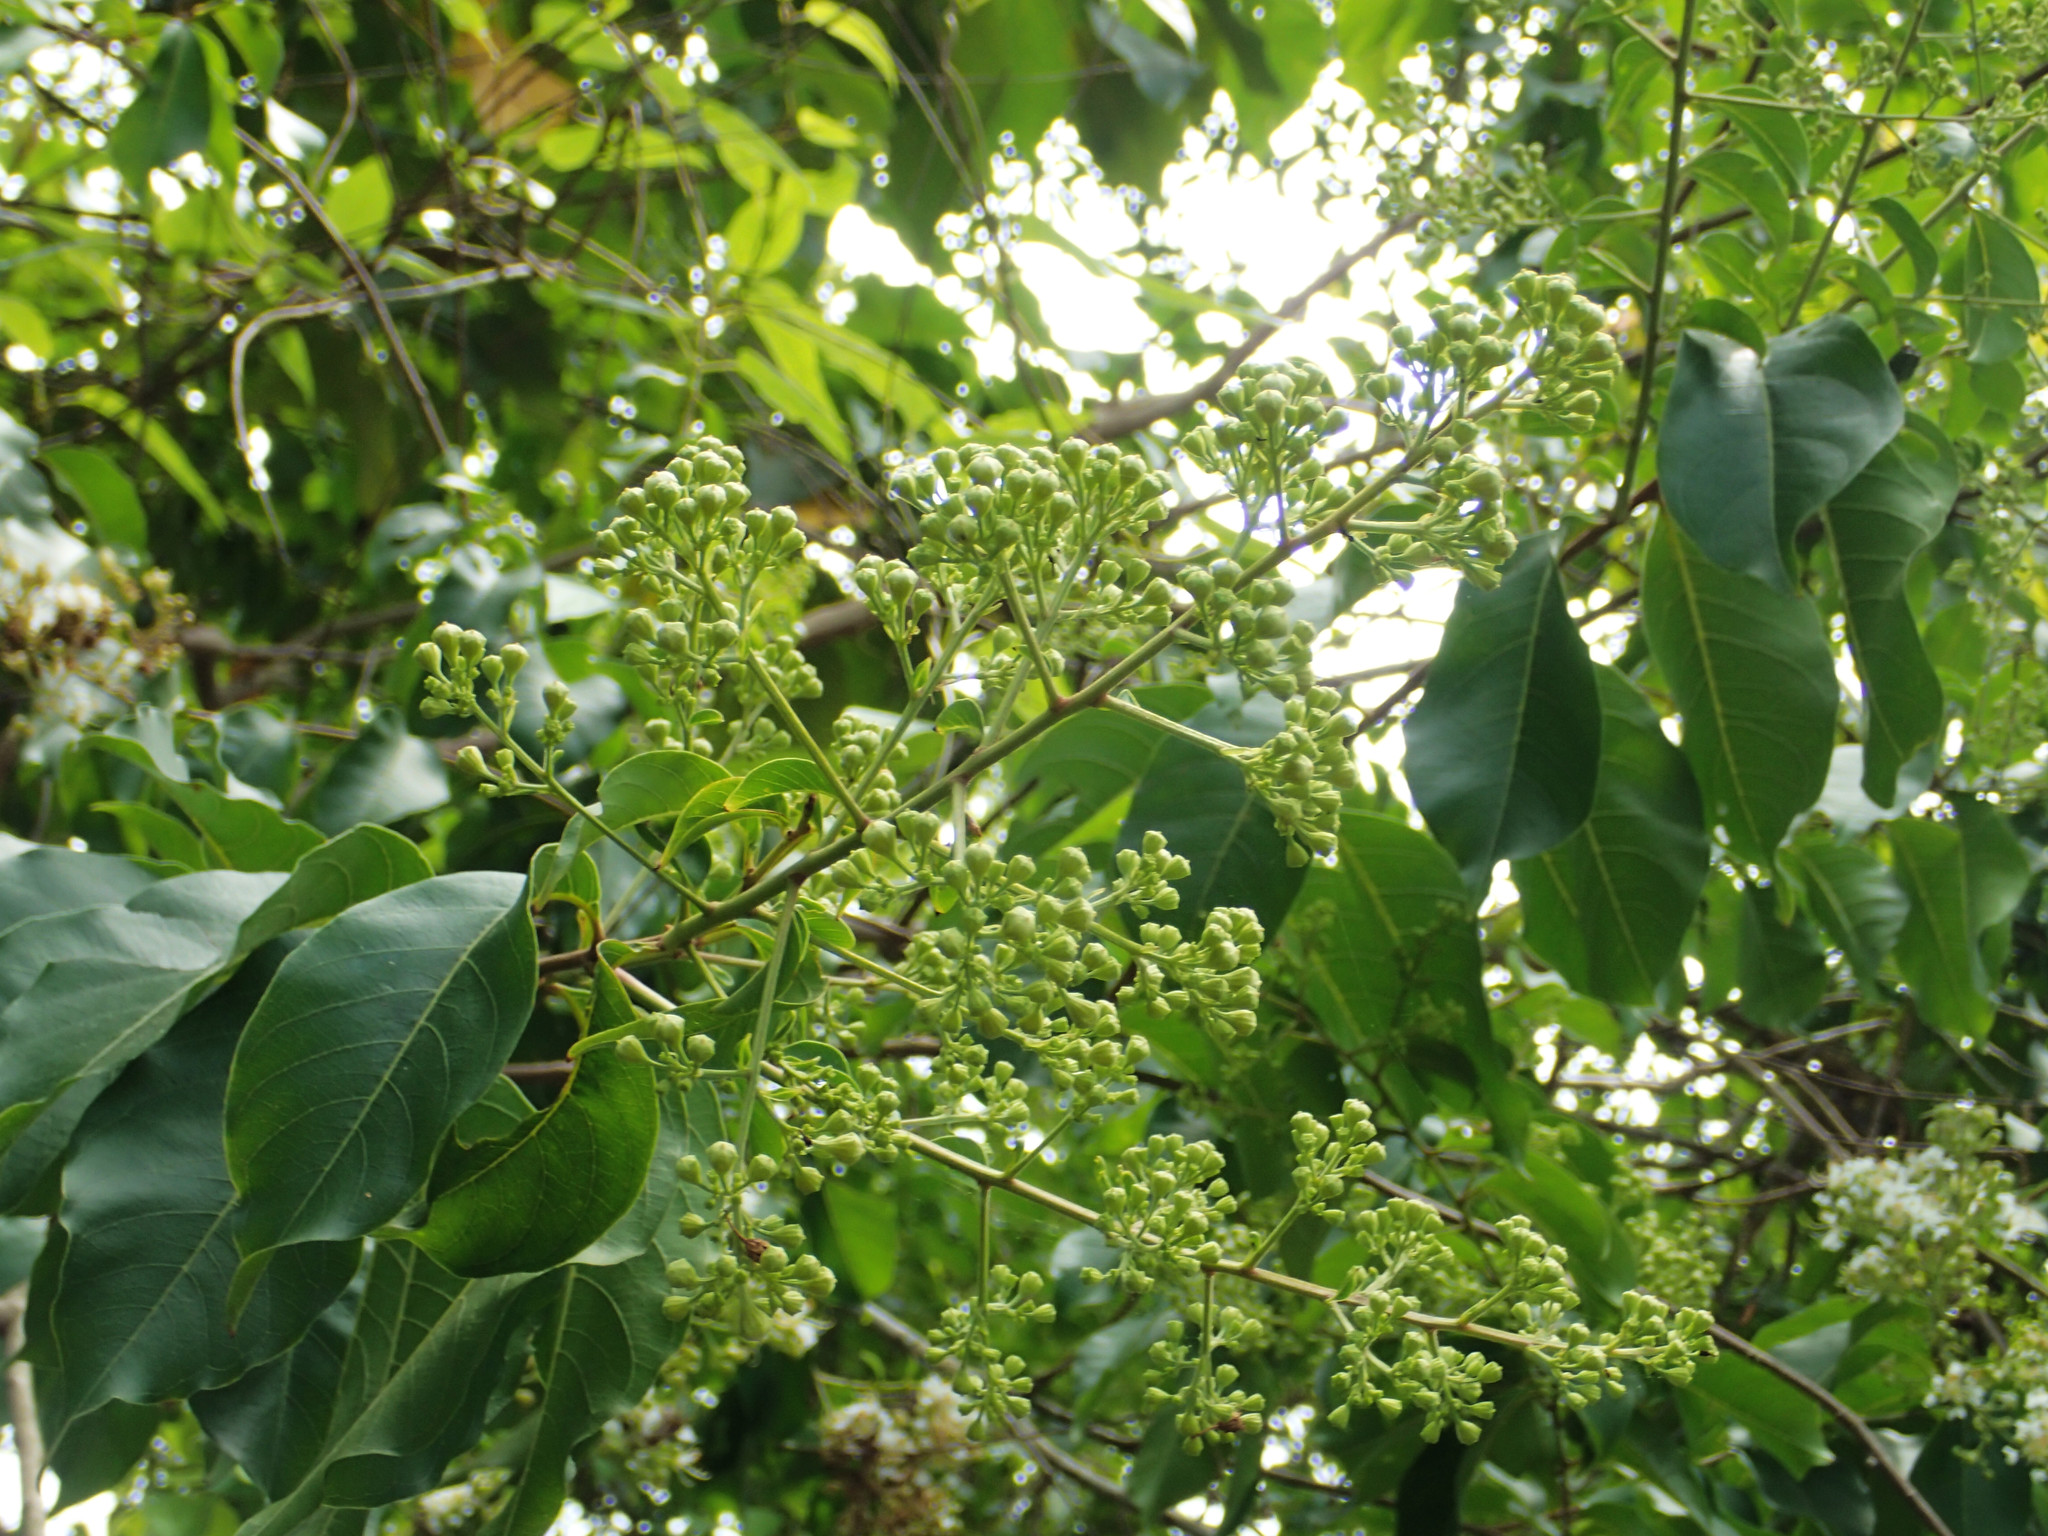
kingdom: Plantae
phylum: Tracheophyta
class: Magnoliopsida
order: Myrtales
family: Lythraceae
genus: Lagerstroemia
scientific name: Lagerstroemia subcostata
